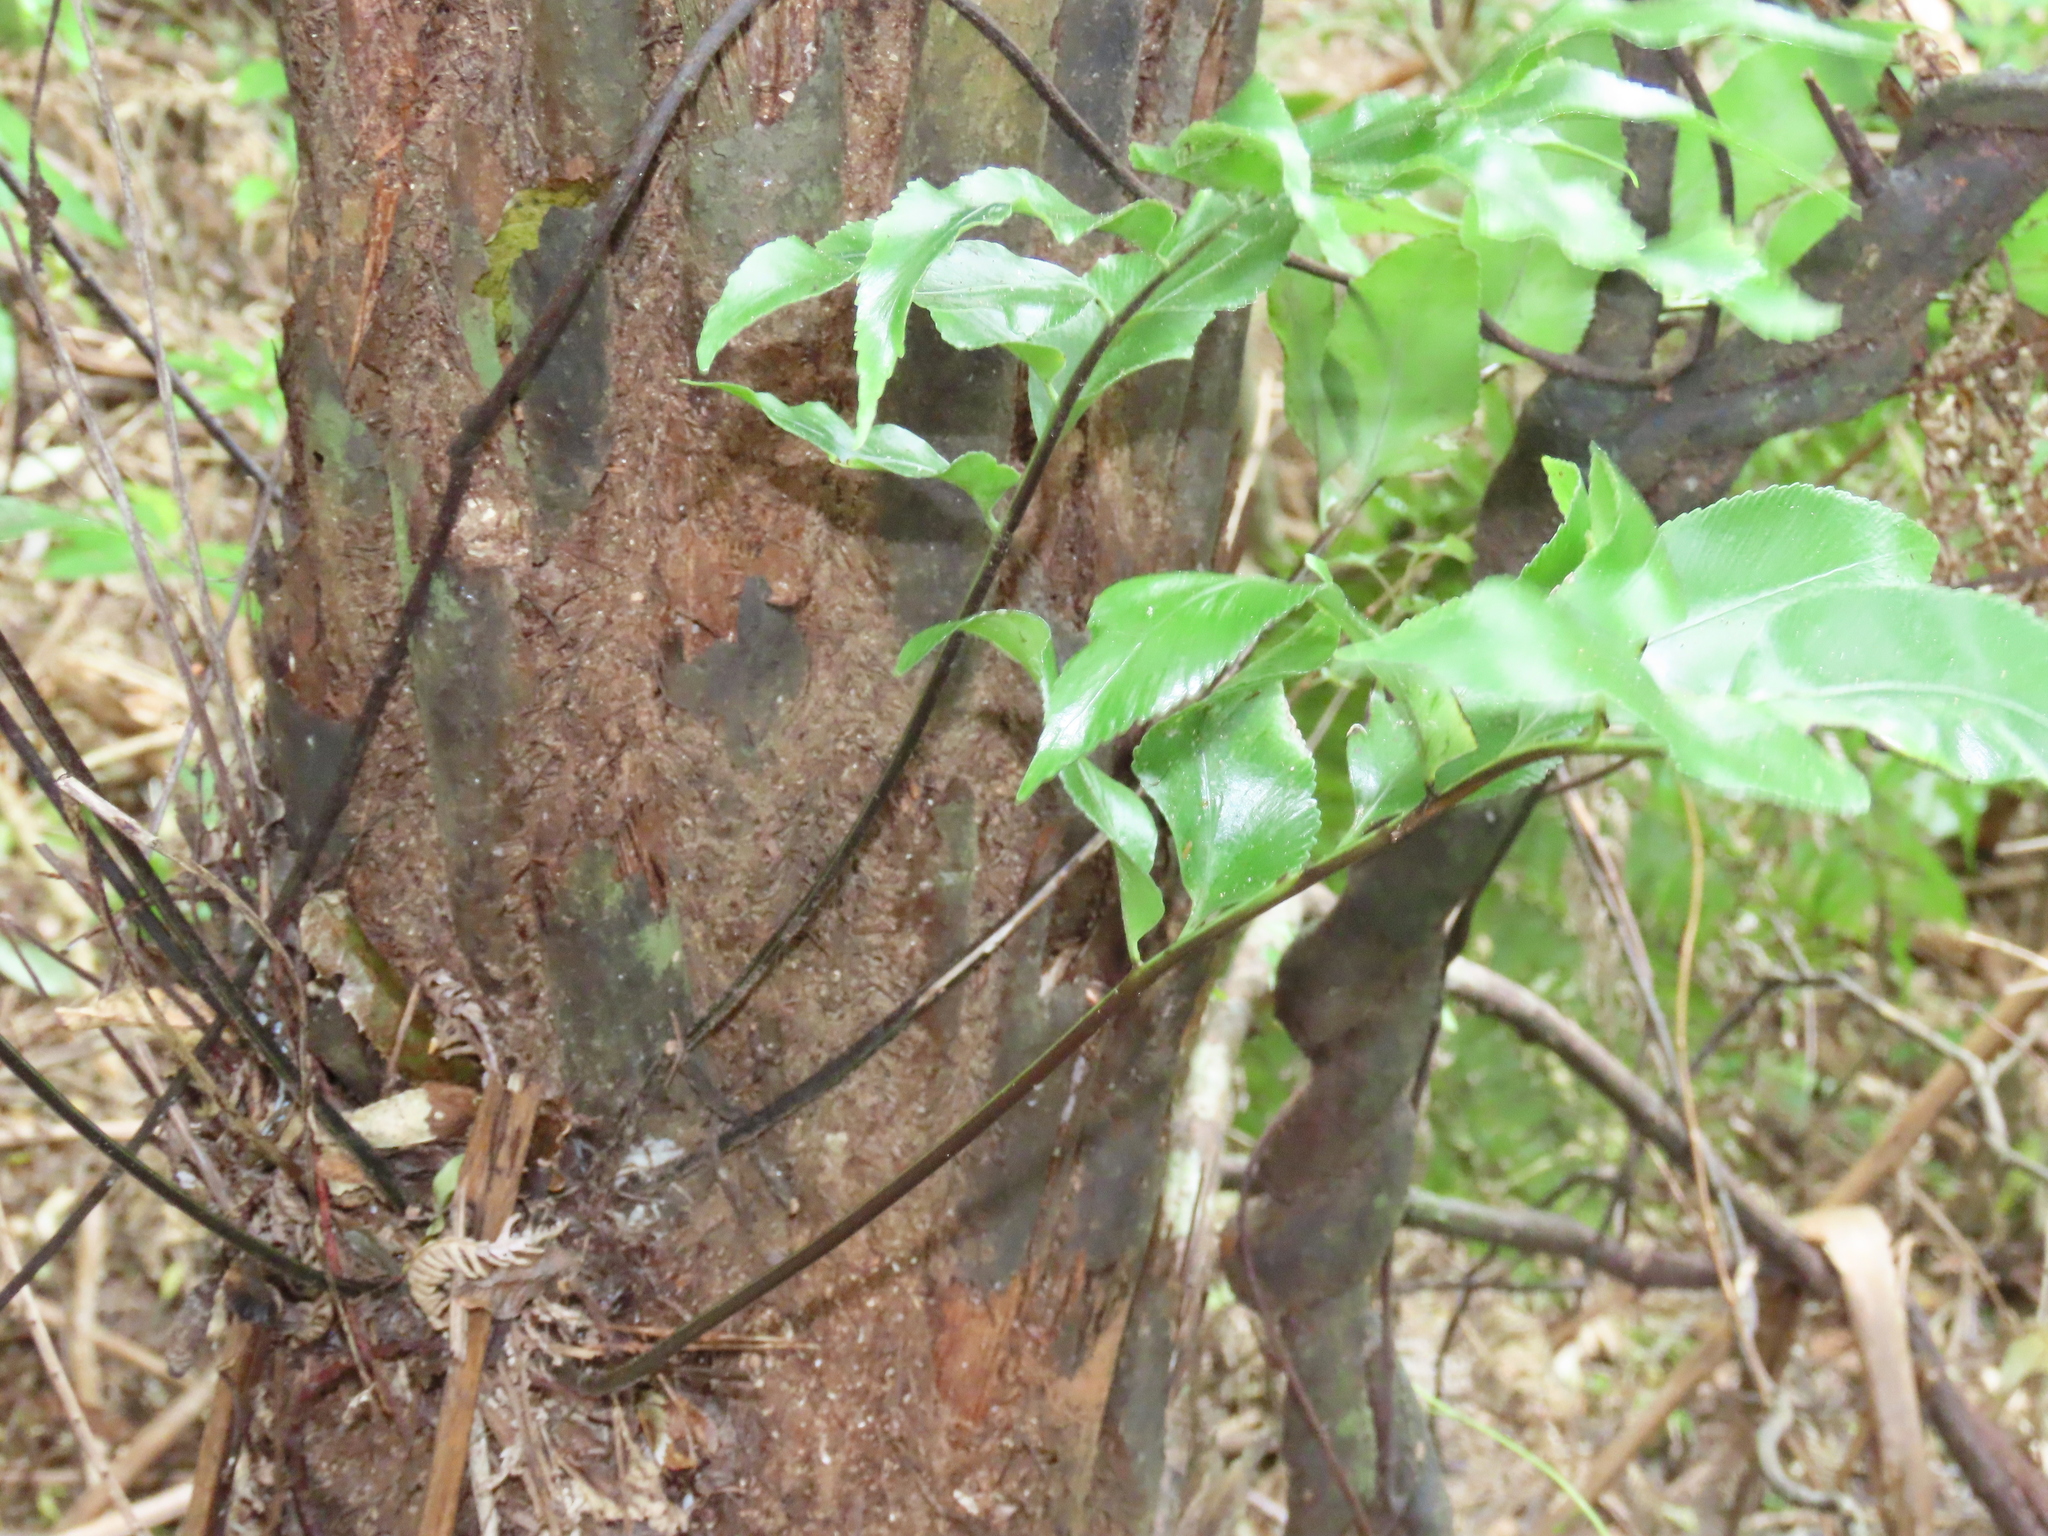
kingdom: Plantae
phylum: Tracheophyta
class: Polypodiopsida
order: Polypodiales
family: Aspleniaceae
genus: Asplenium
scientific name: Asplenium oblongifolium
